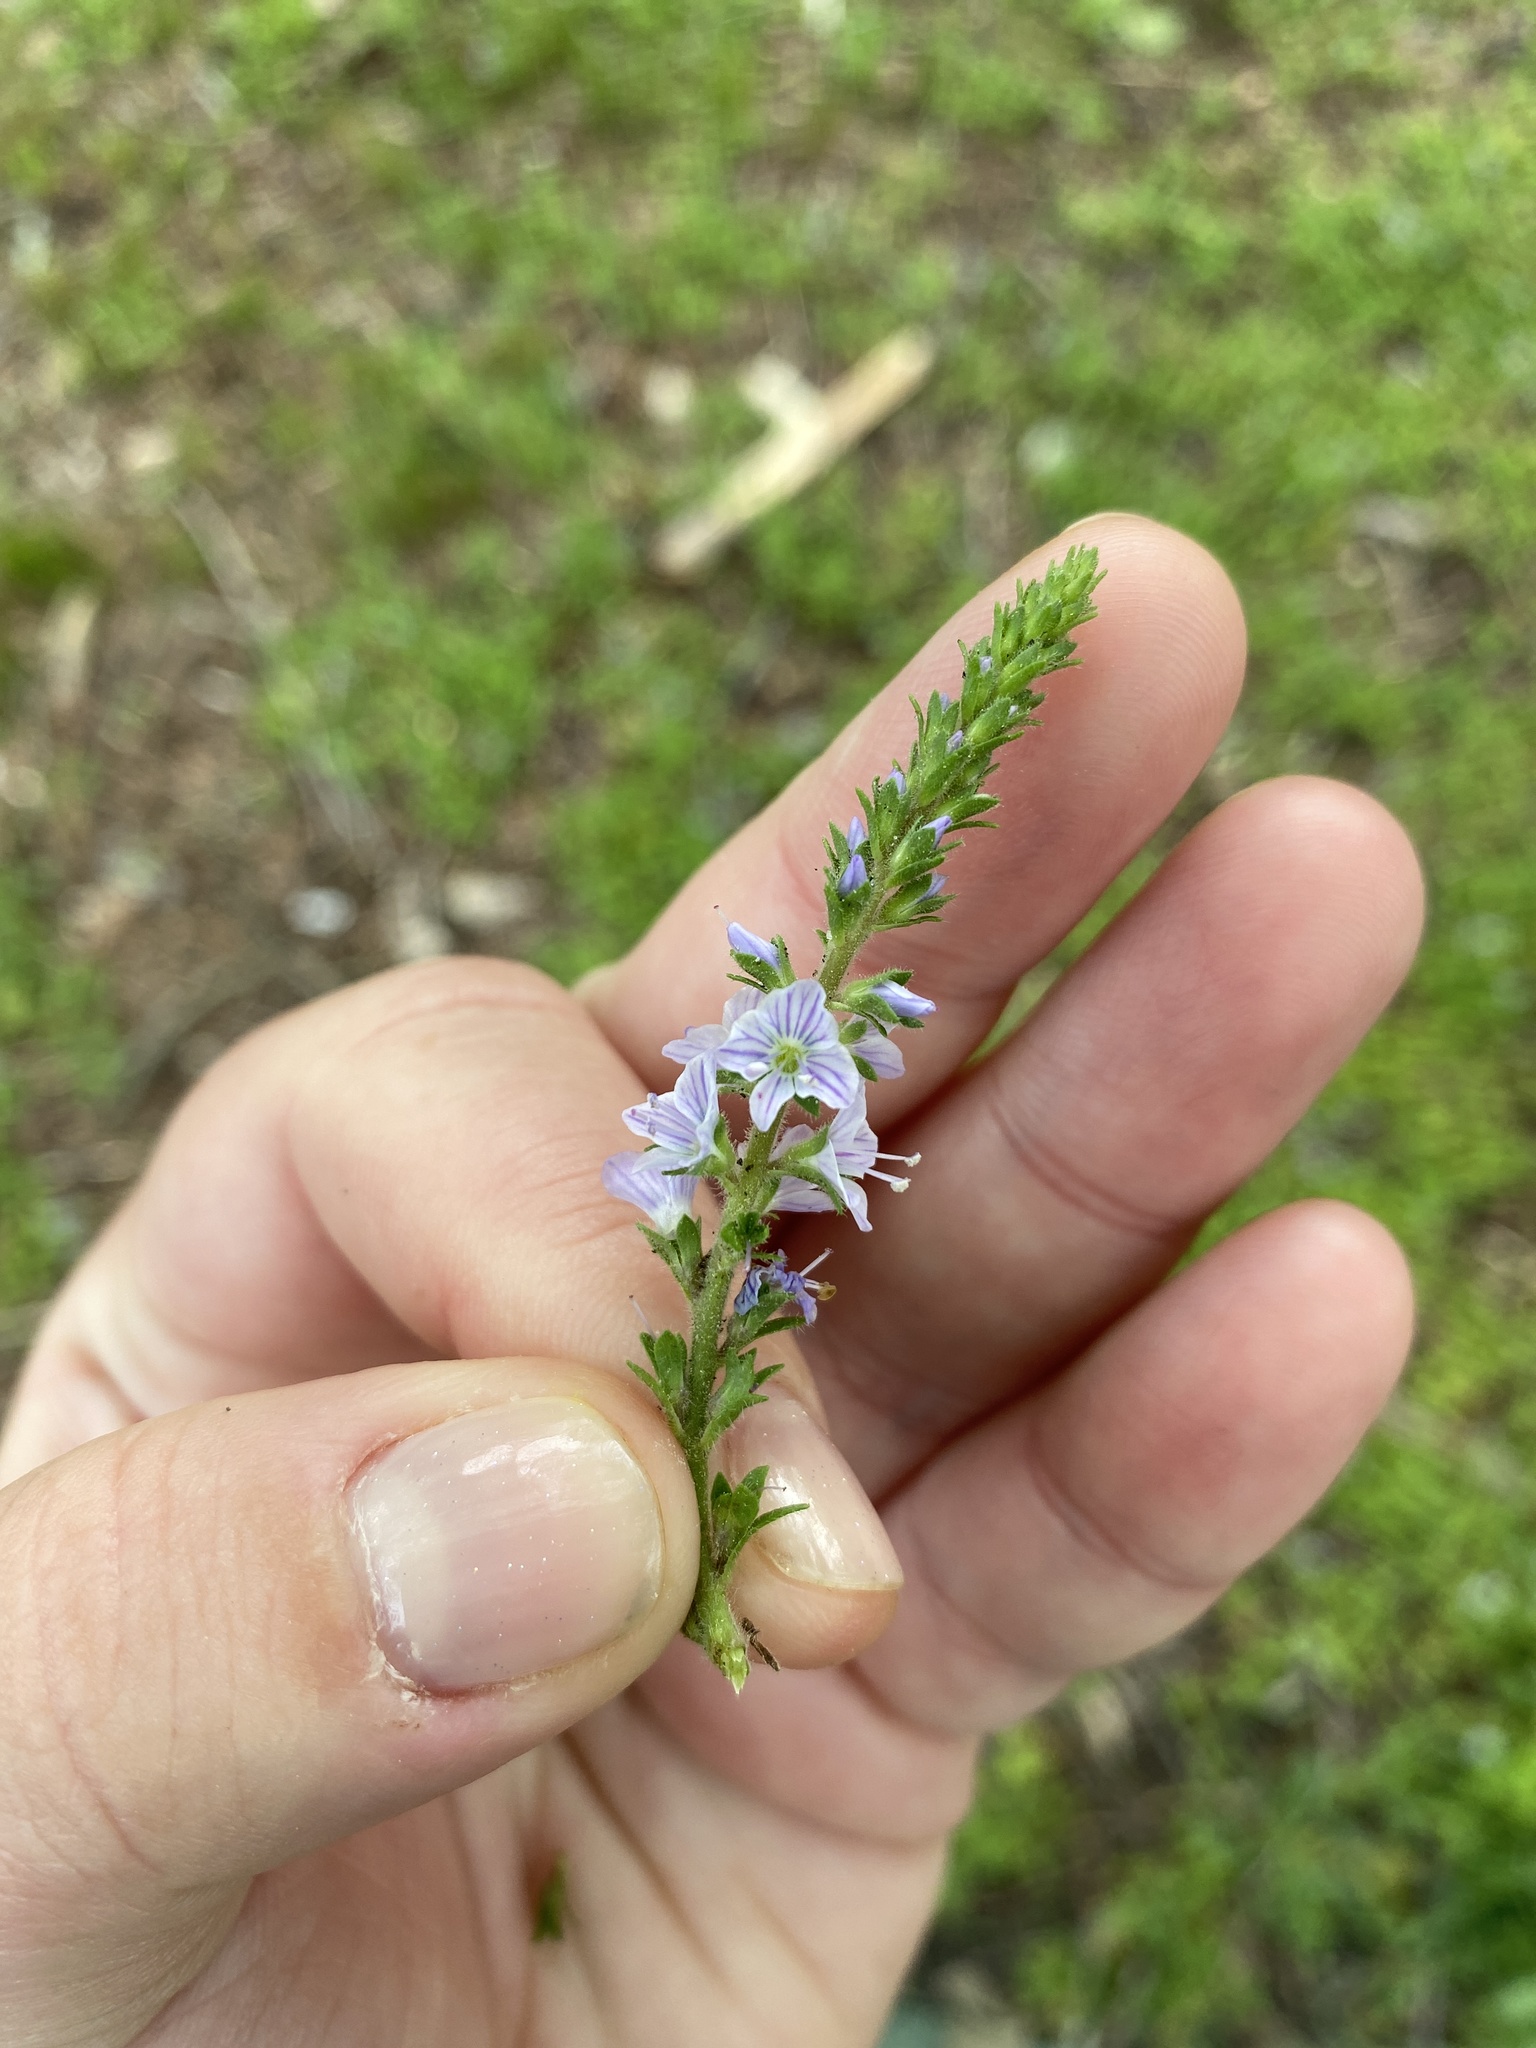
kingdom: Plantae
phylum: Tracheophyta
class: Magnoliopsida
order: Lamiales
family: Plantaginaceae
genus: Veronica
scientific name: Veronica officinalis
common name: Common speedwell
